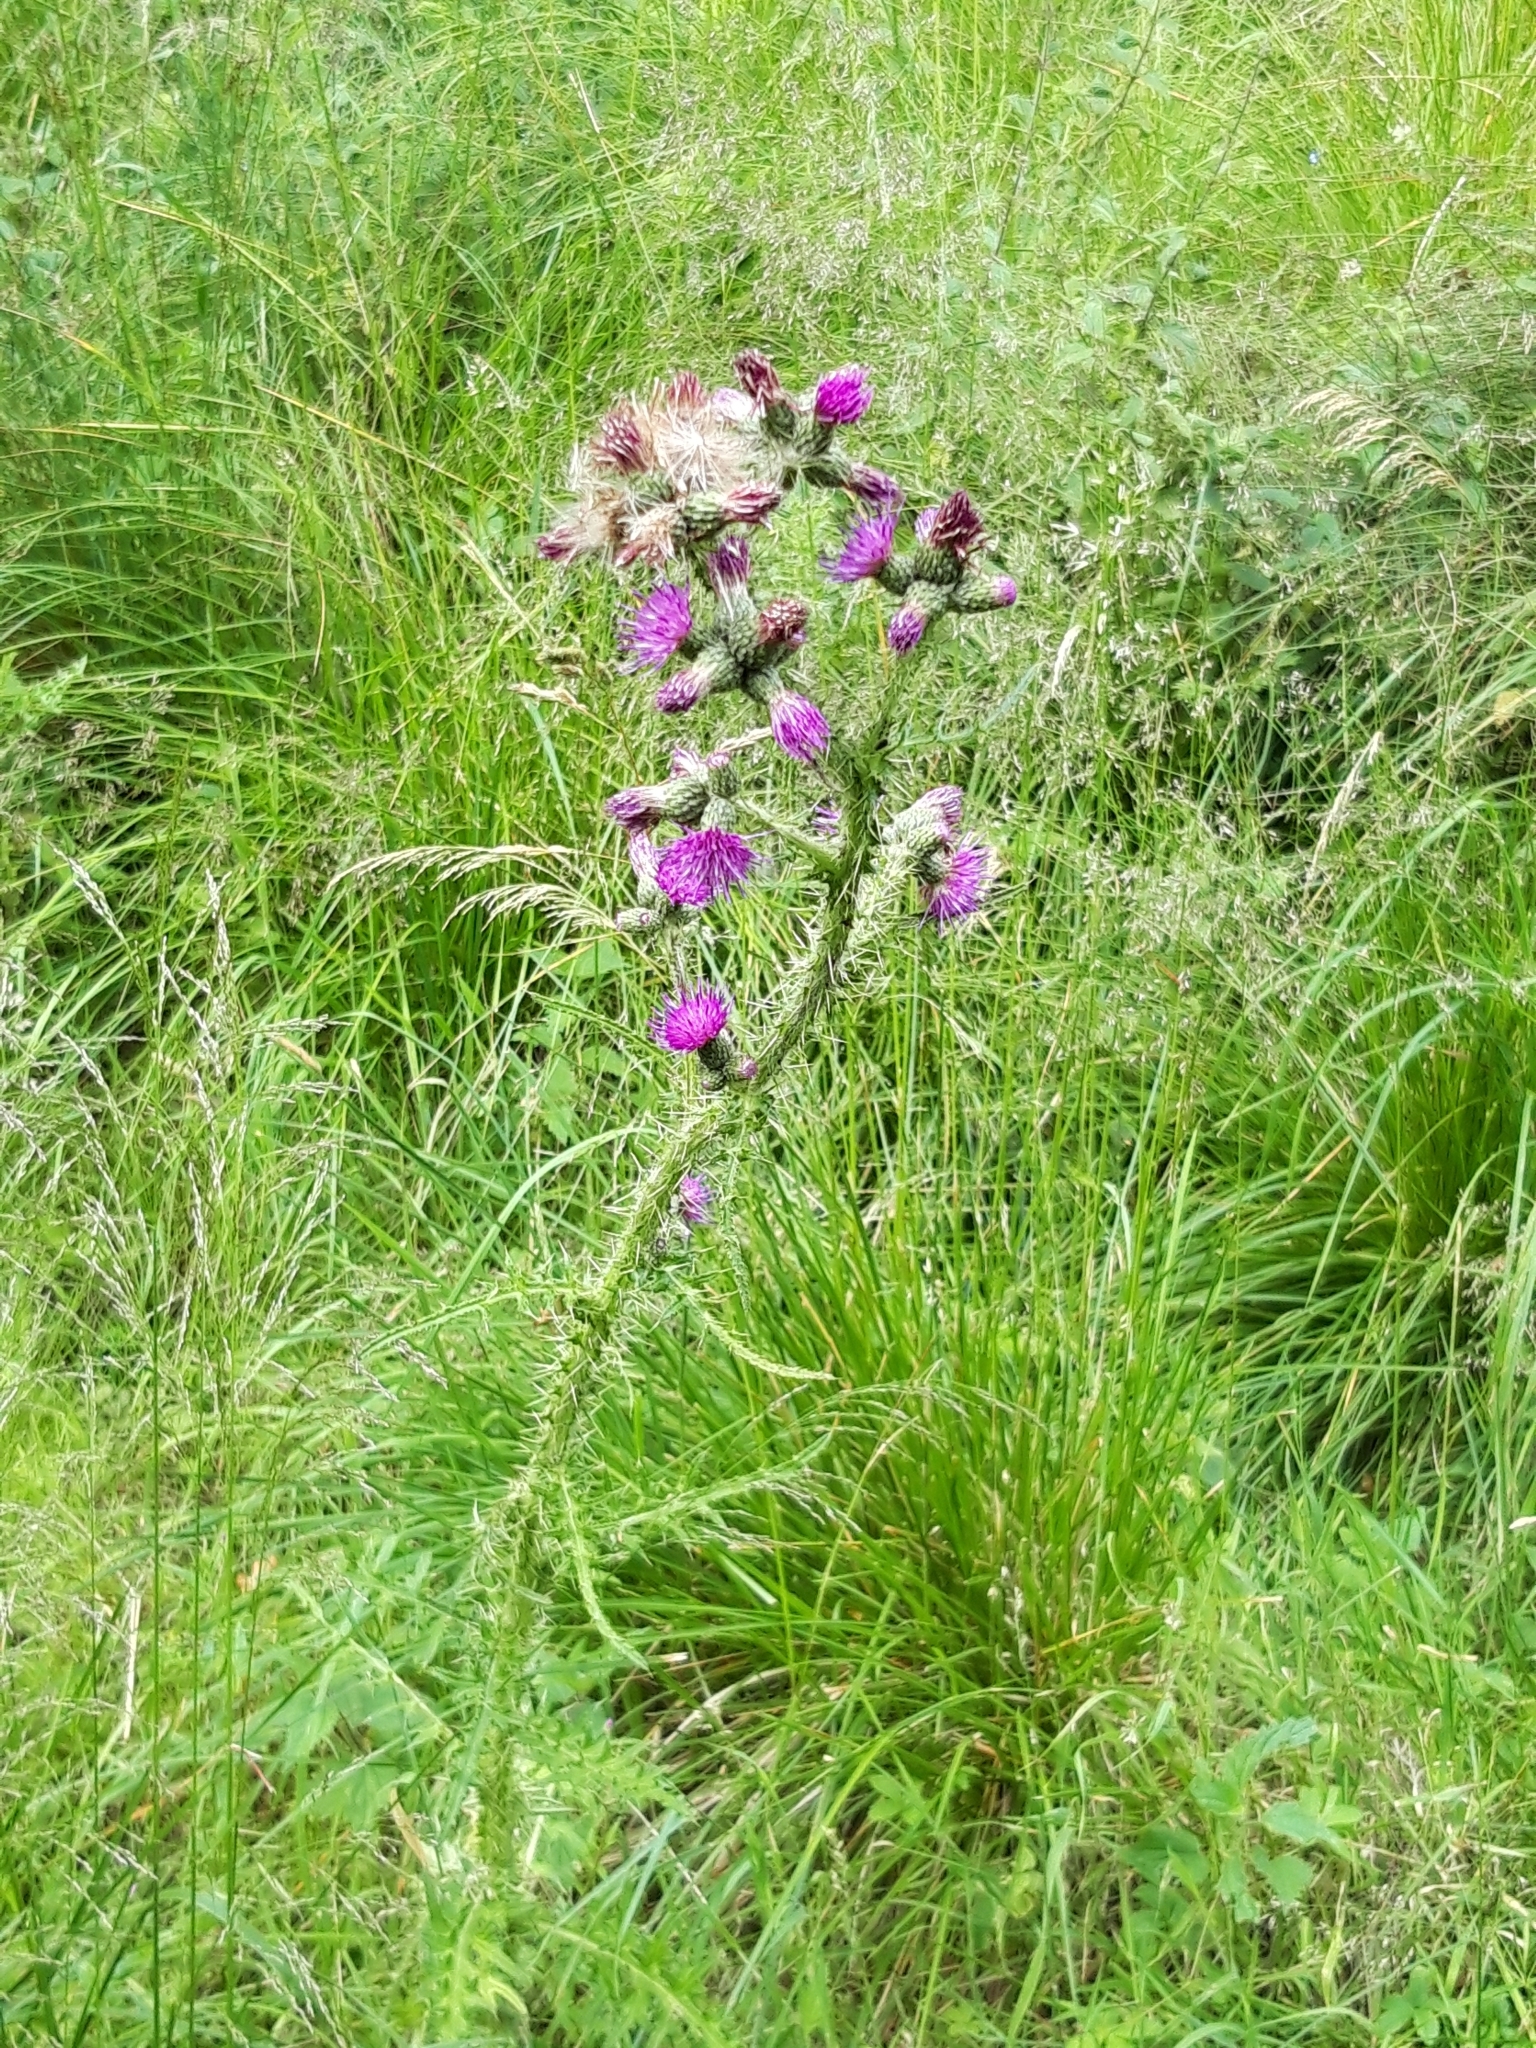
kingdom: Plantae
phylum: Tracheophyta
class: Magnoliopsida
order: Asterales
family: Asteraceae
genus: Cirsium
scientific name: Cirsium palustre
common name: Marsh thistle
